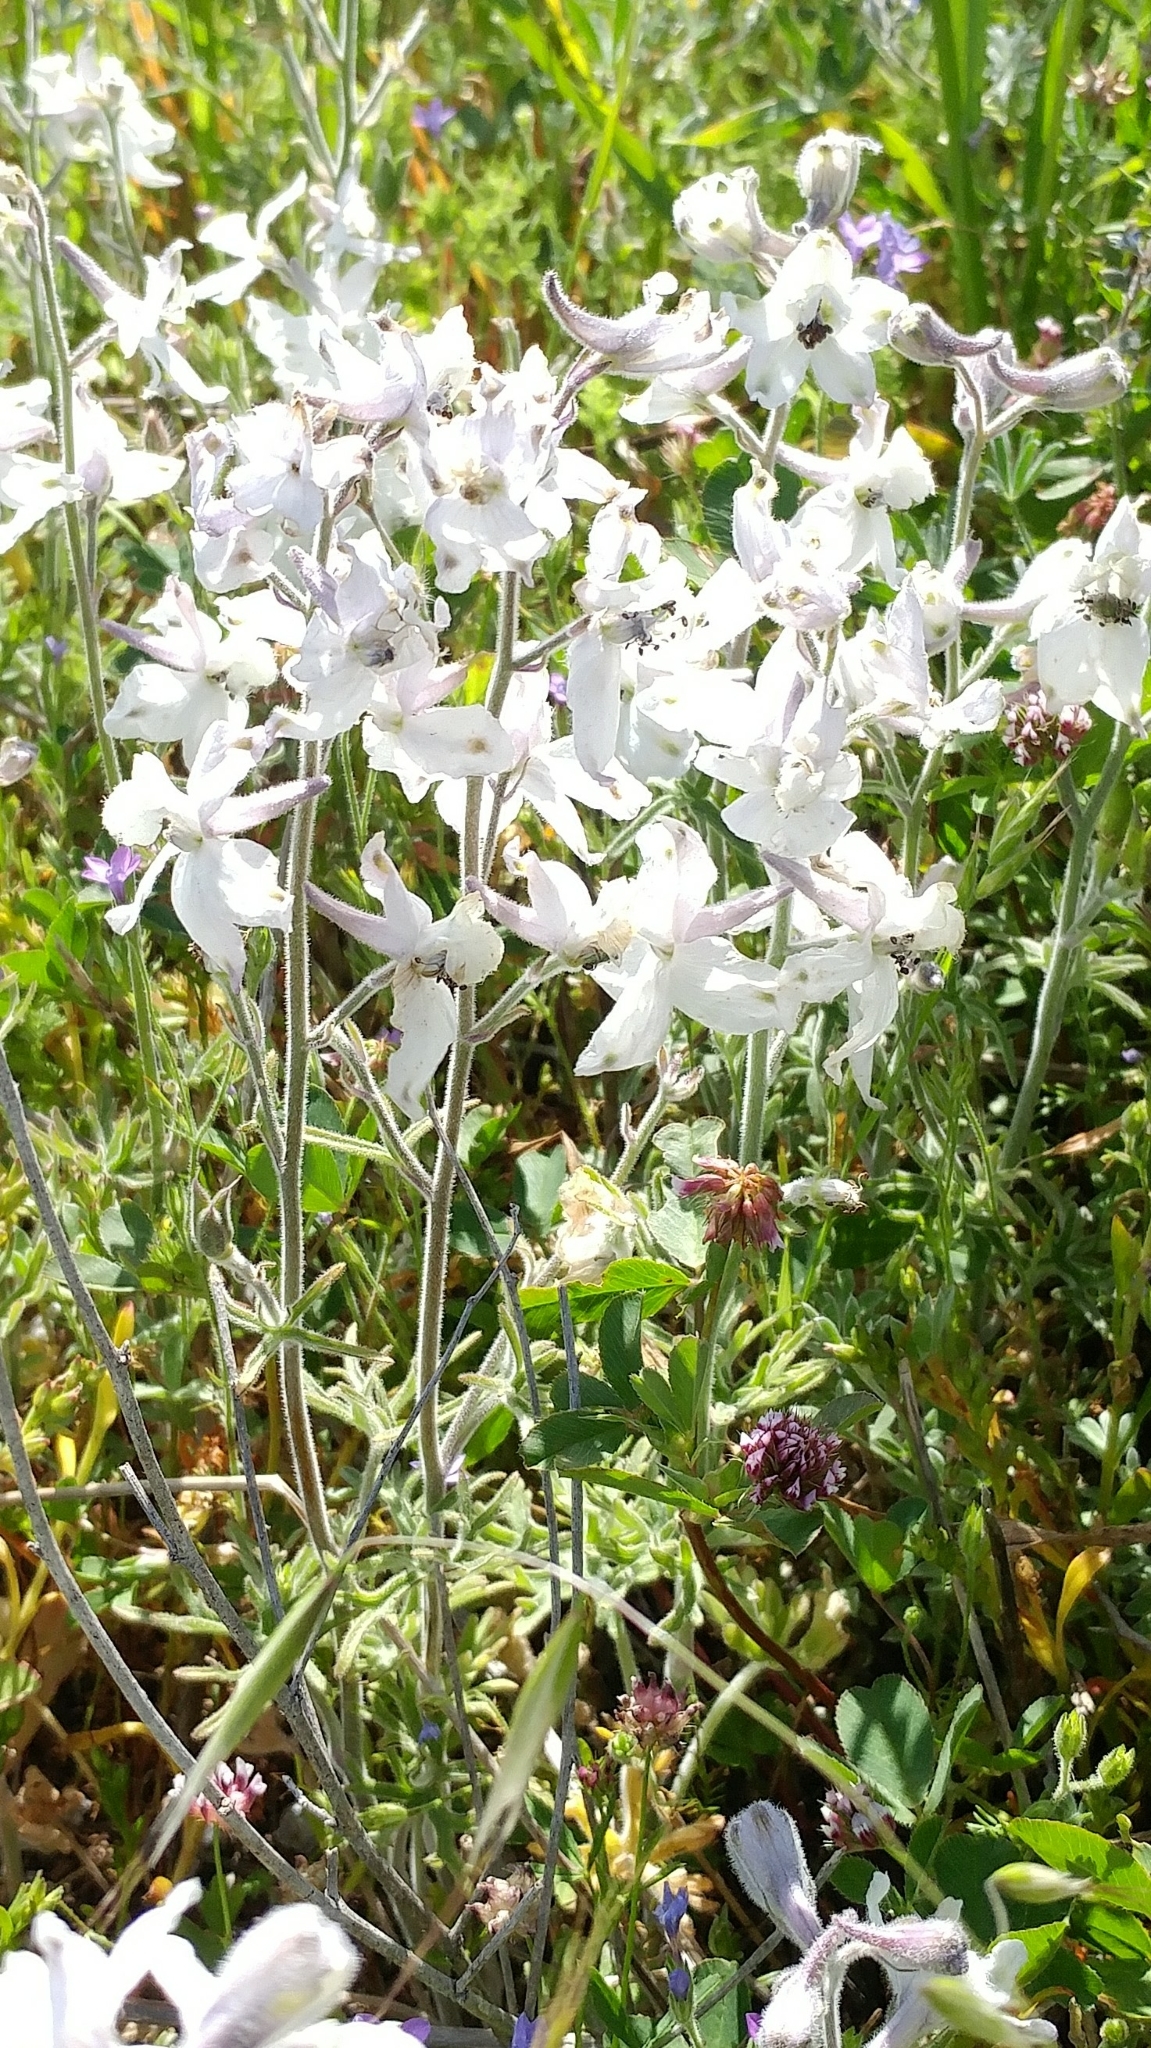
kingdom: Plantae
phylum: Tracheophyta
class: Magnoliopsida
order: Ranunculales
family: Ranunculaceae
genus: Delphinium
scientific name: Delphinium variegatum
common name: Royal larkspur
